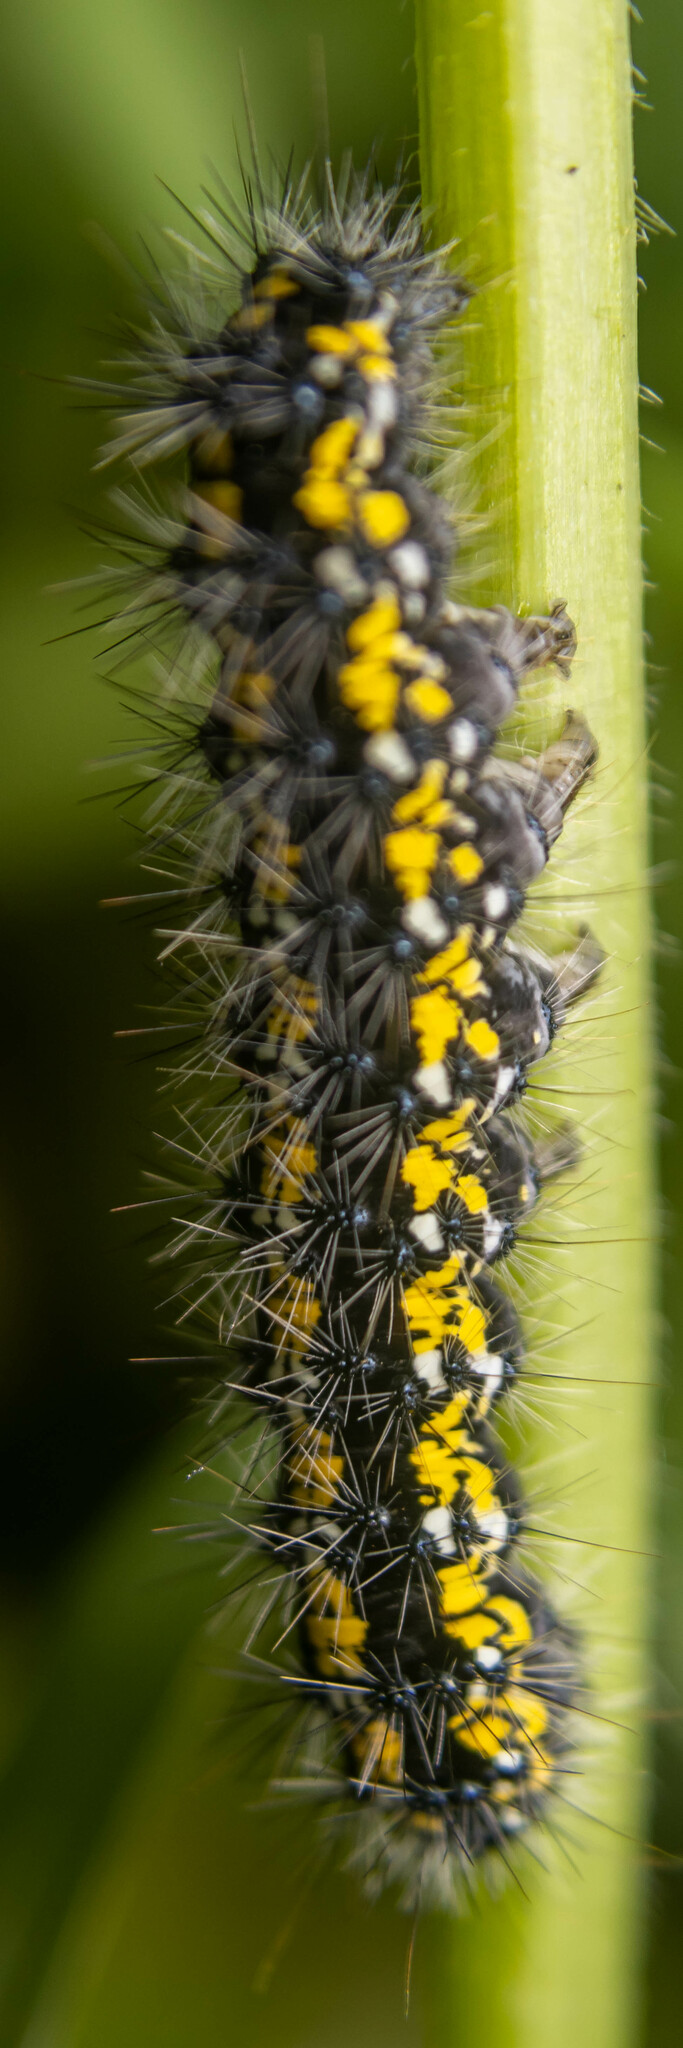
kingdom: Animalia
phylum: Arthropoda
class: Insecta
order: Lepidoptera
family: Erebidae
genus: Callimorpha
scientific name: Callimorpha dominula
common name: Scarlet tiger
